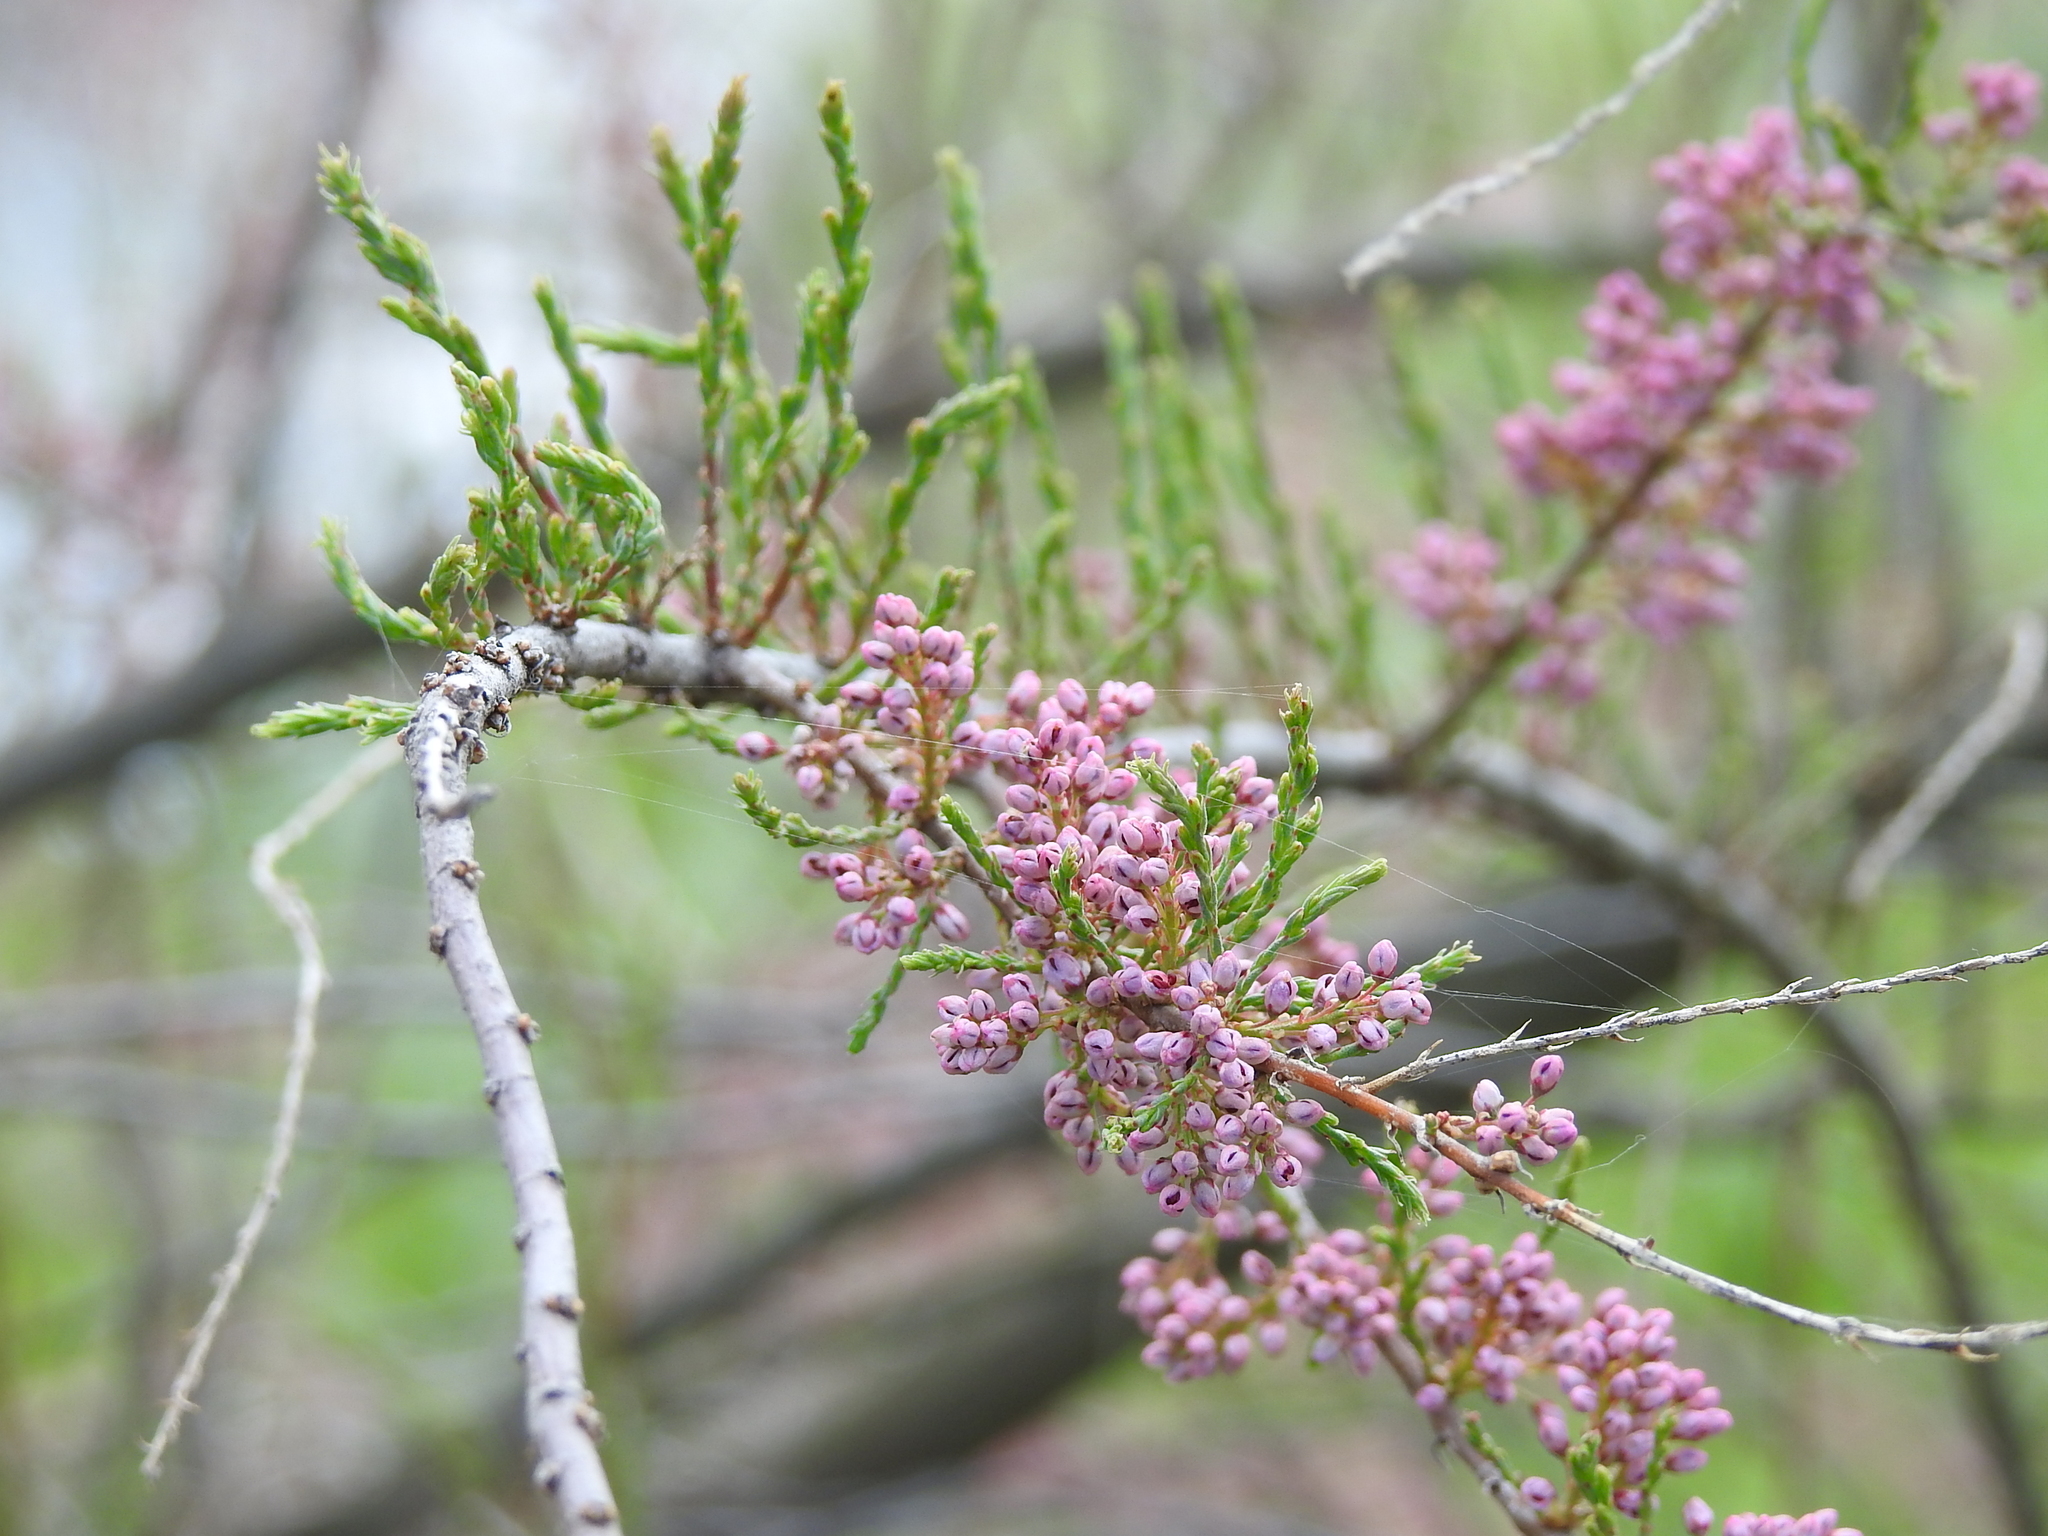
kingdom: Plantae
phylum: Tracheophyta
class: Magnoliopsida
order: Caryophyllales
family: Tamaricaceae
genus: Tamarix
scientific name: Tamarix ramosissima
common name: Pink tamarisk
